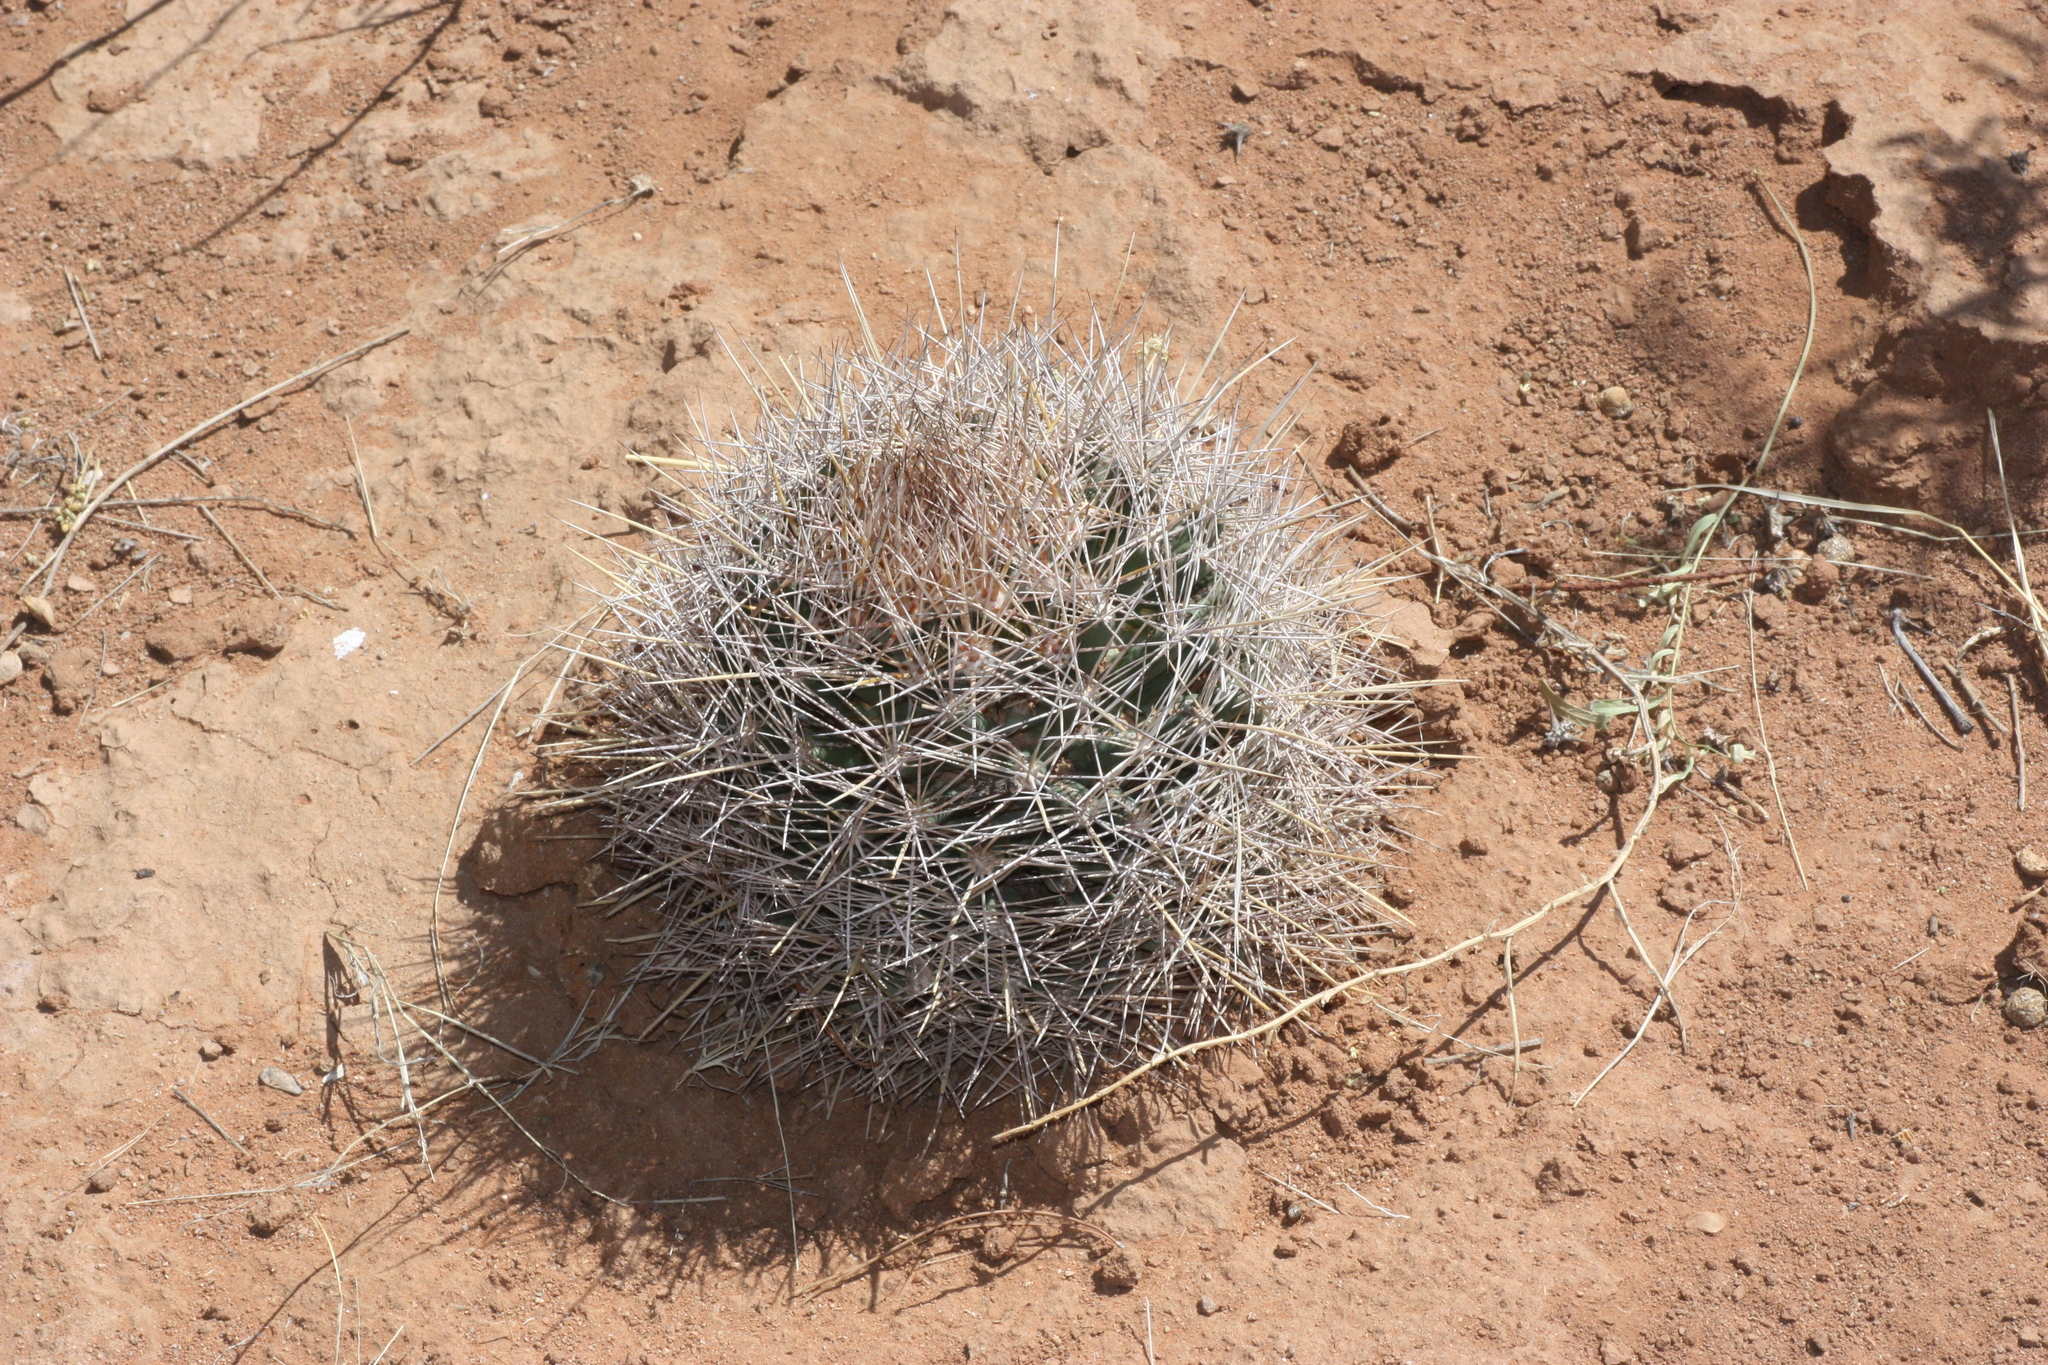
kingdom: Plantae
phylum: Tracheophyta
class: Magnoliopsida
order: Caryophyllales
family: Cactaceae
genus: Coryphantha
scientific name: Coryphantha robustispina
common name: Pima pineapple cactus
